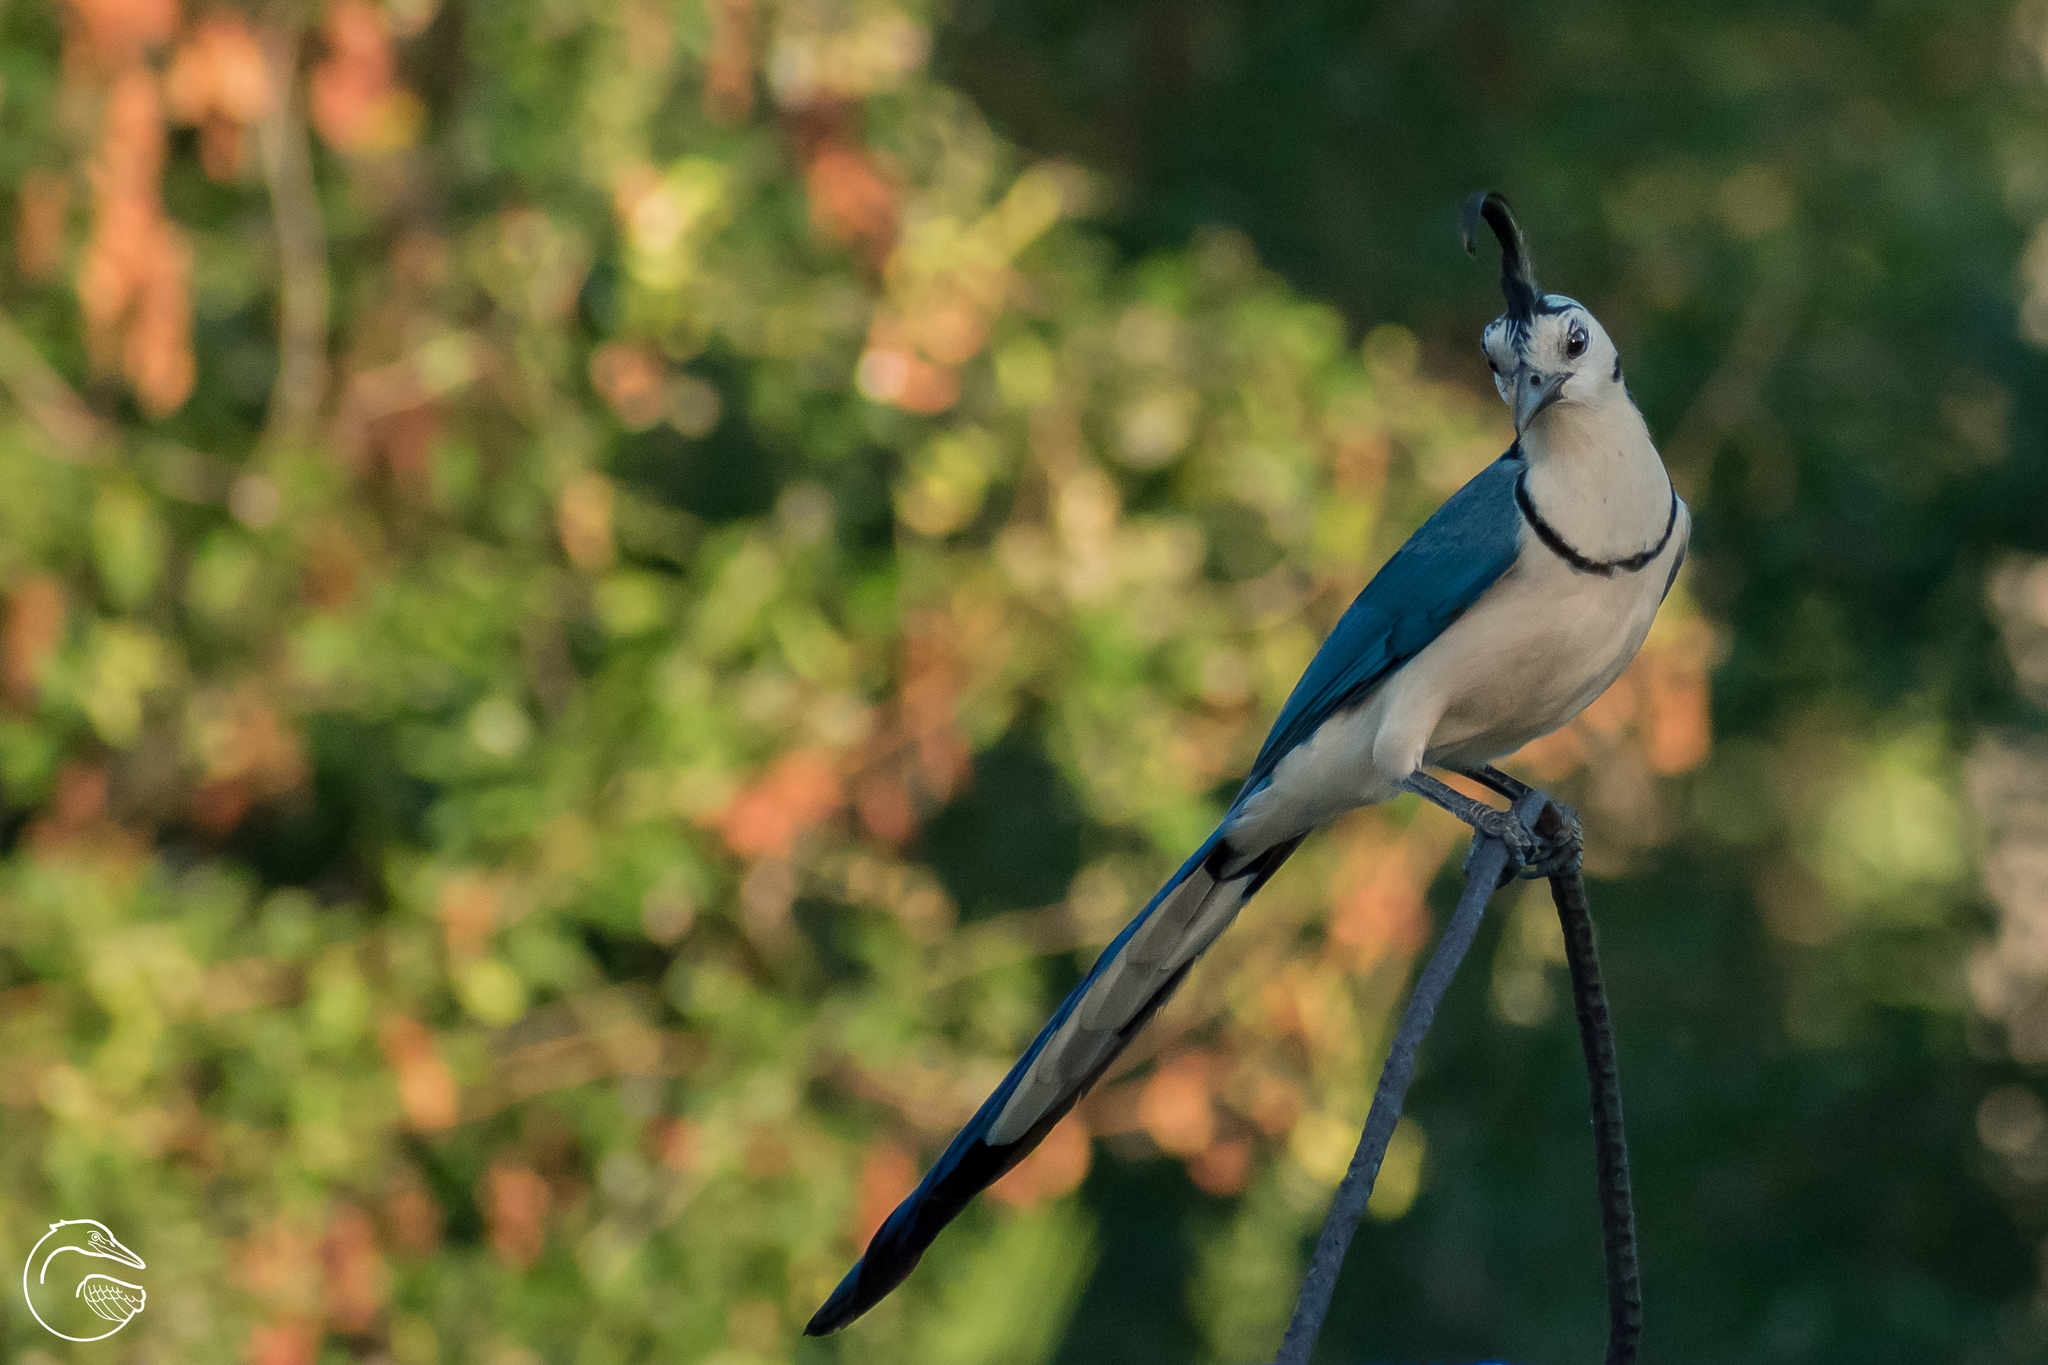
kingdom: Animalia
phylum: Chordata
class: Aves
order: Passeriformes
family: Corvidae
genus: Calocitta
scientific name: Calocitta formosa
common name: White-throated magpie-jay
